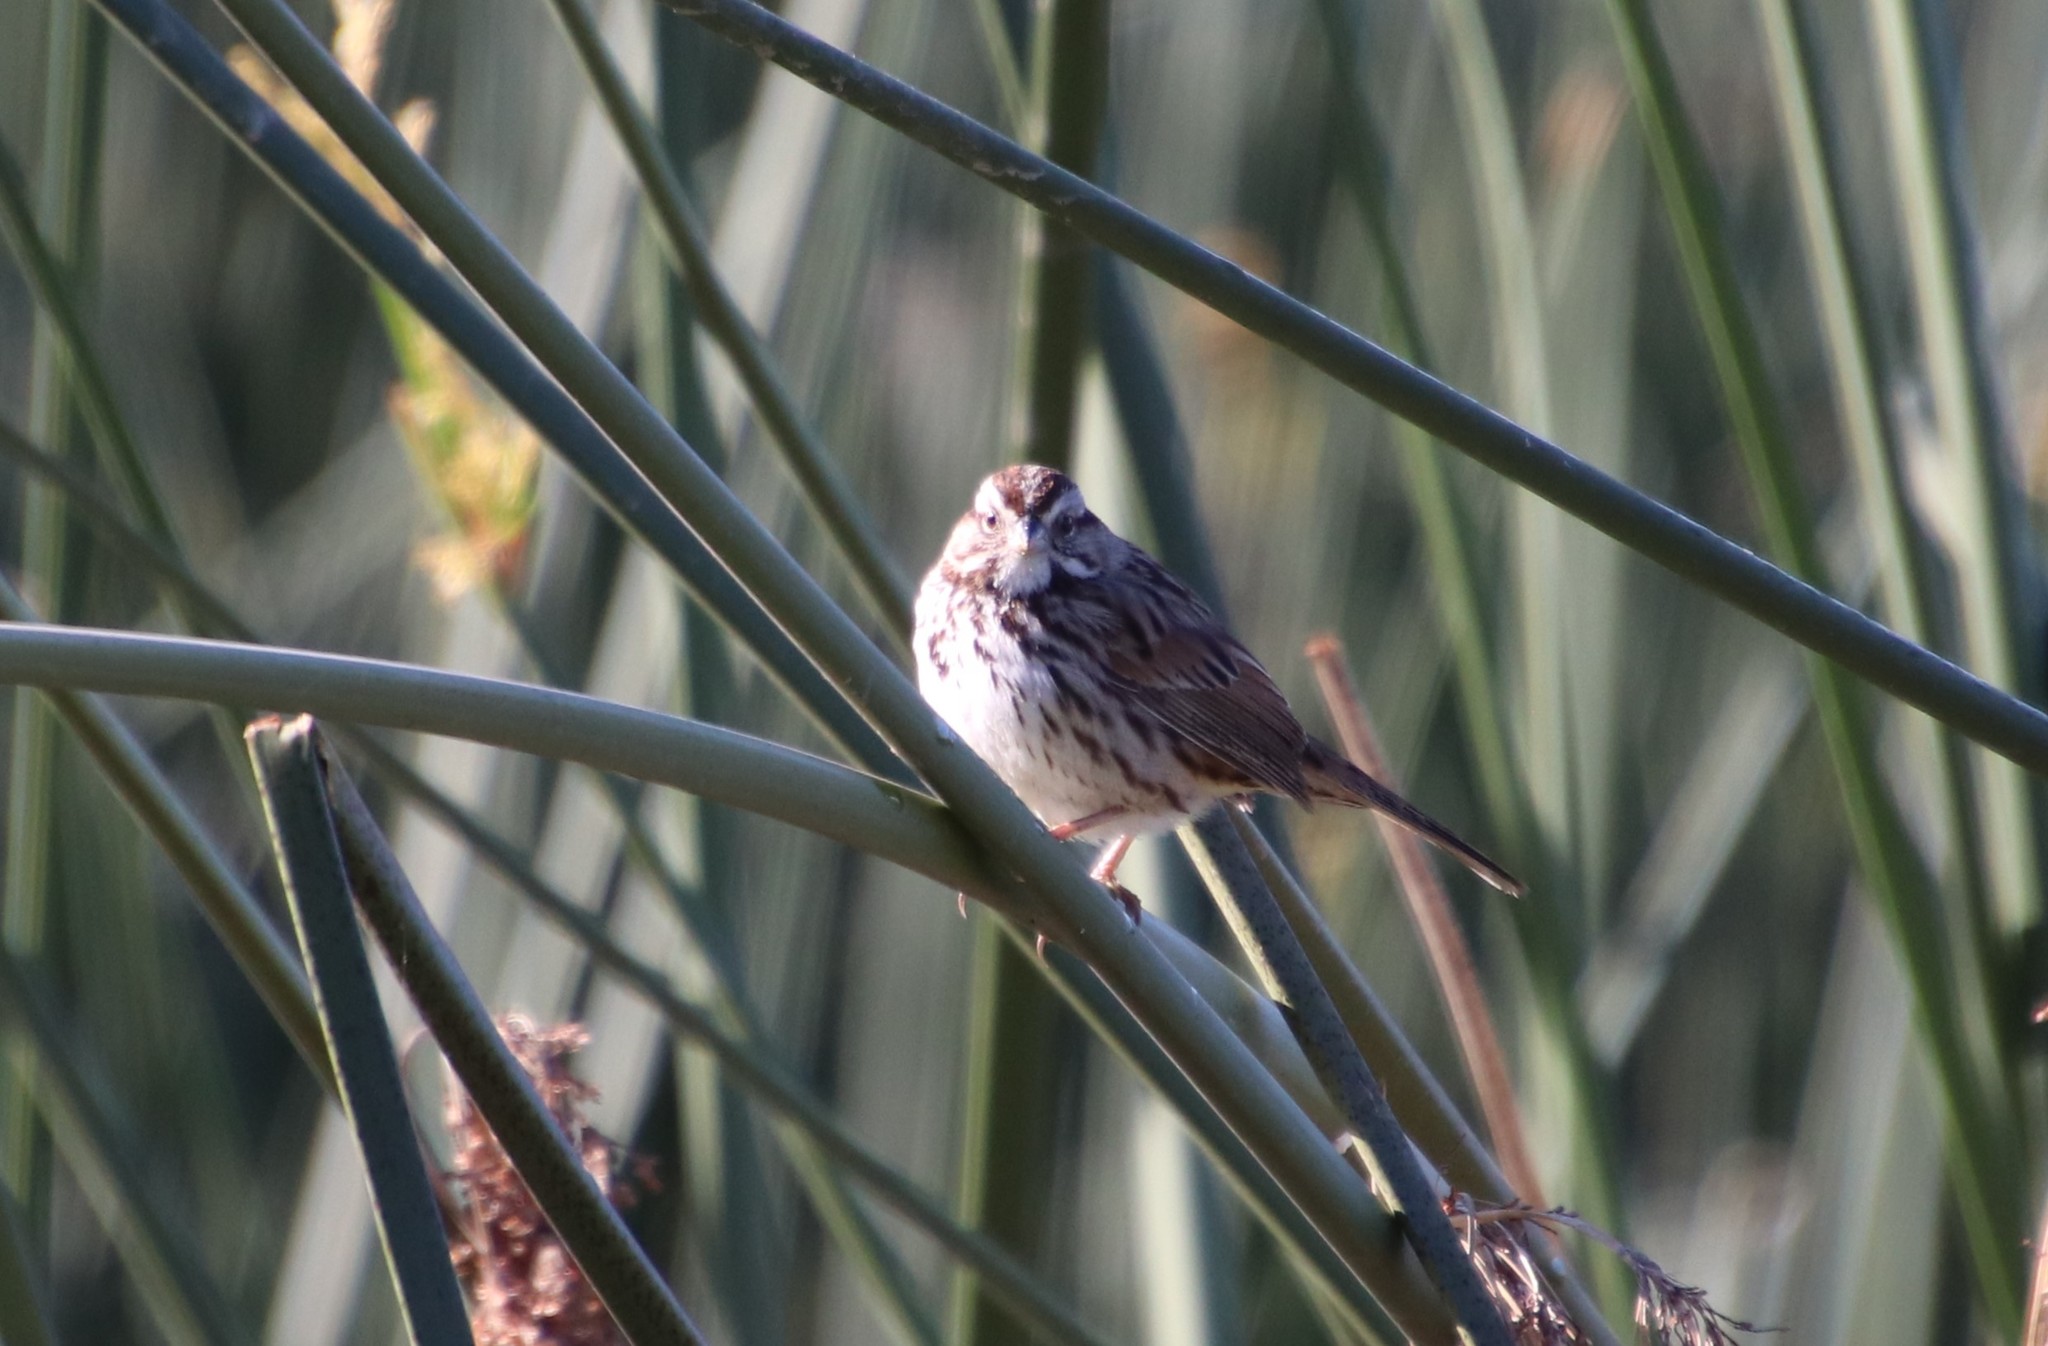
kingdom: Animalia
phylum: Chordata
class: Aves
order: Passeriformes
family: Passerellidae
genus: Melospiza
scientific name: Melospiza melodia
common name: Song sparrow
